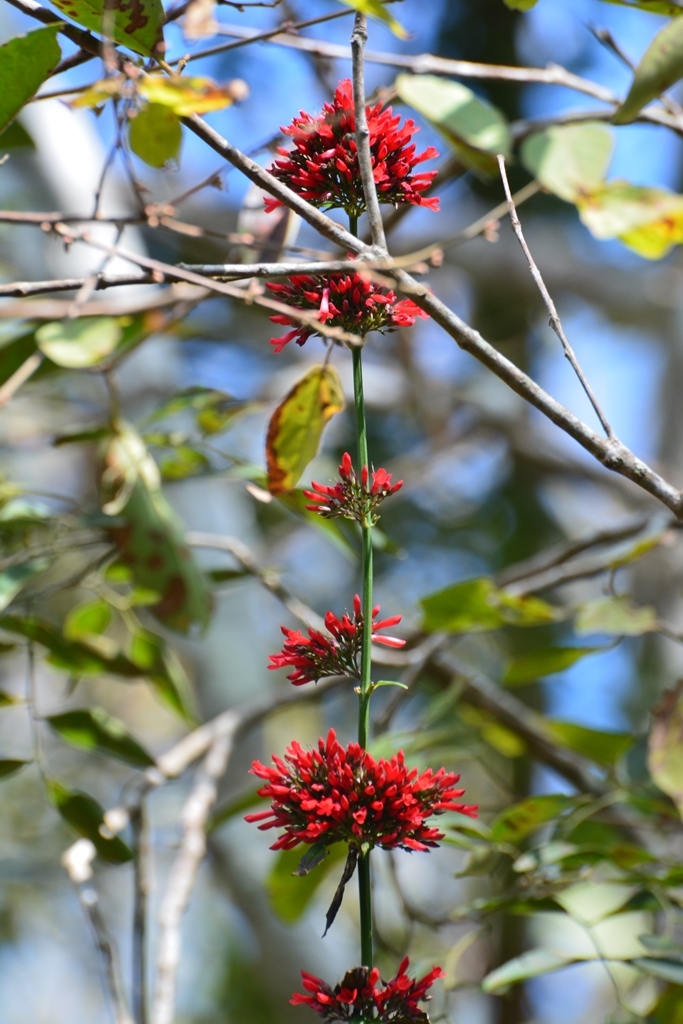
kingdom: Plantae
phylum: Tracheophyta
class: Magnoliopsida
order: Lamiales
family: Plantaginaceae
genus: Russelia
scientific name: Russelia verticillata
